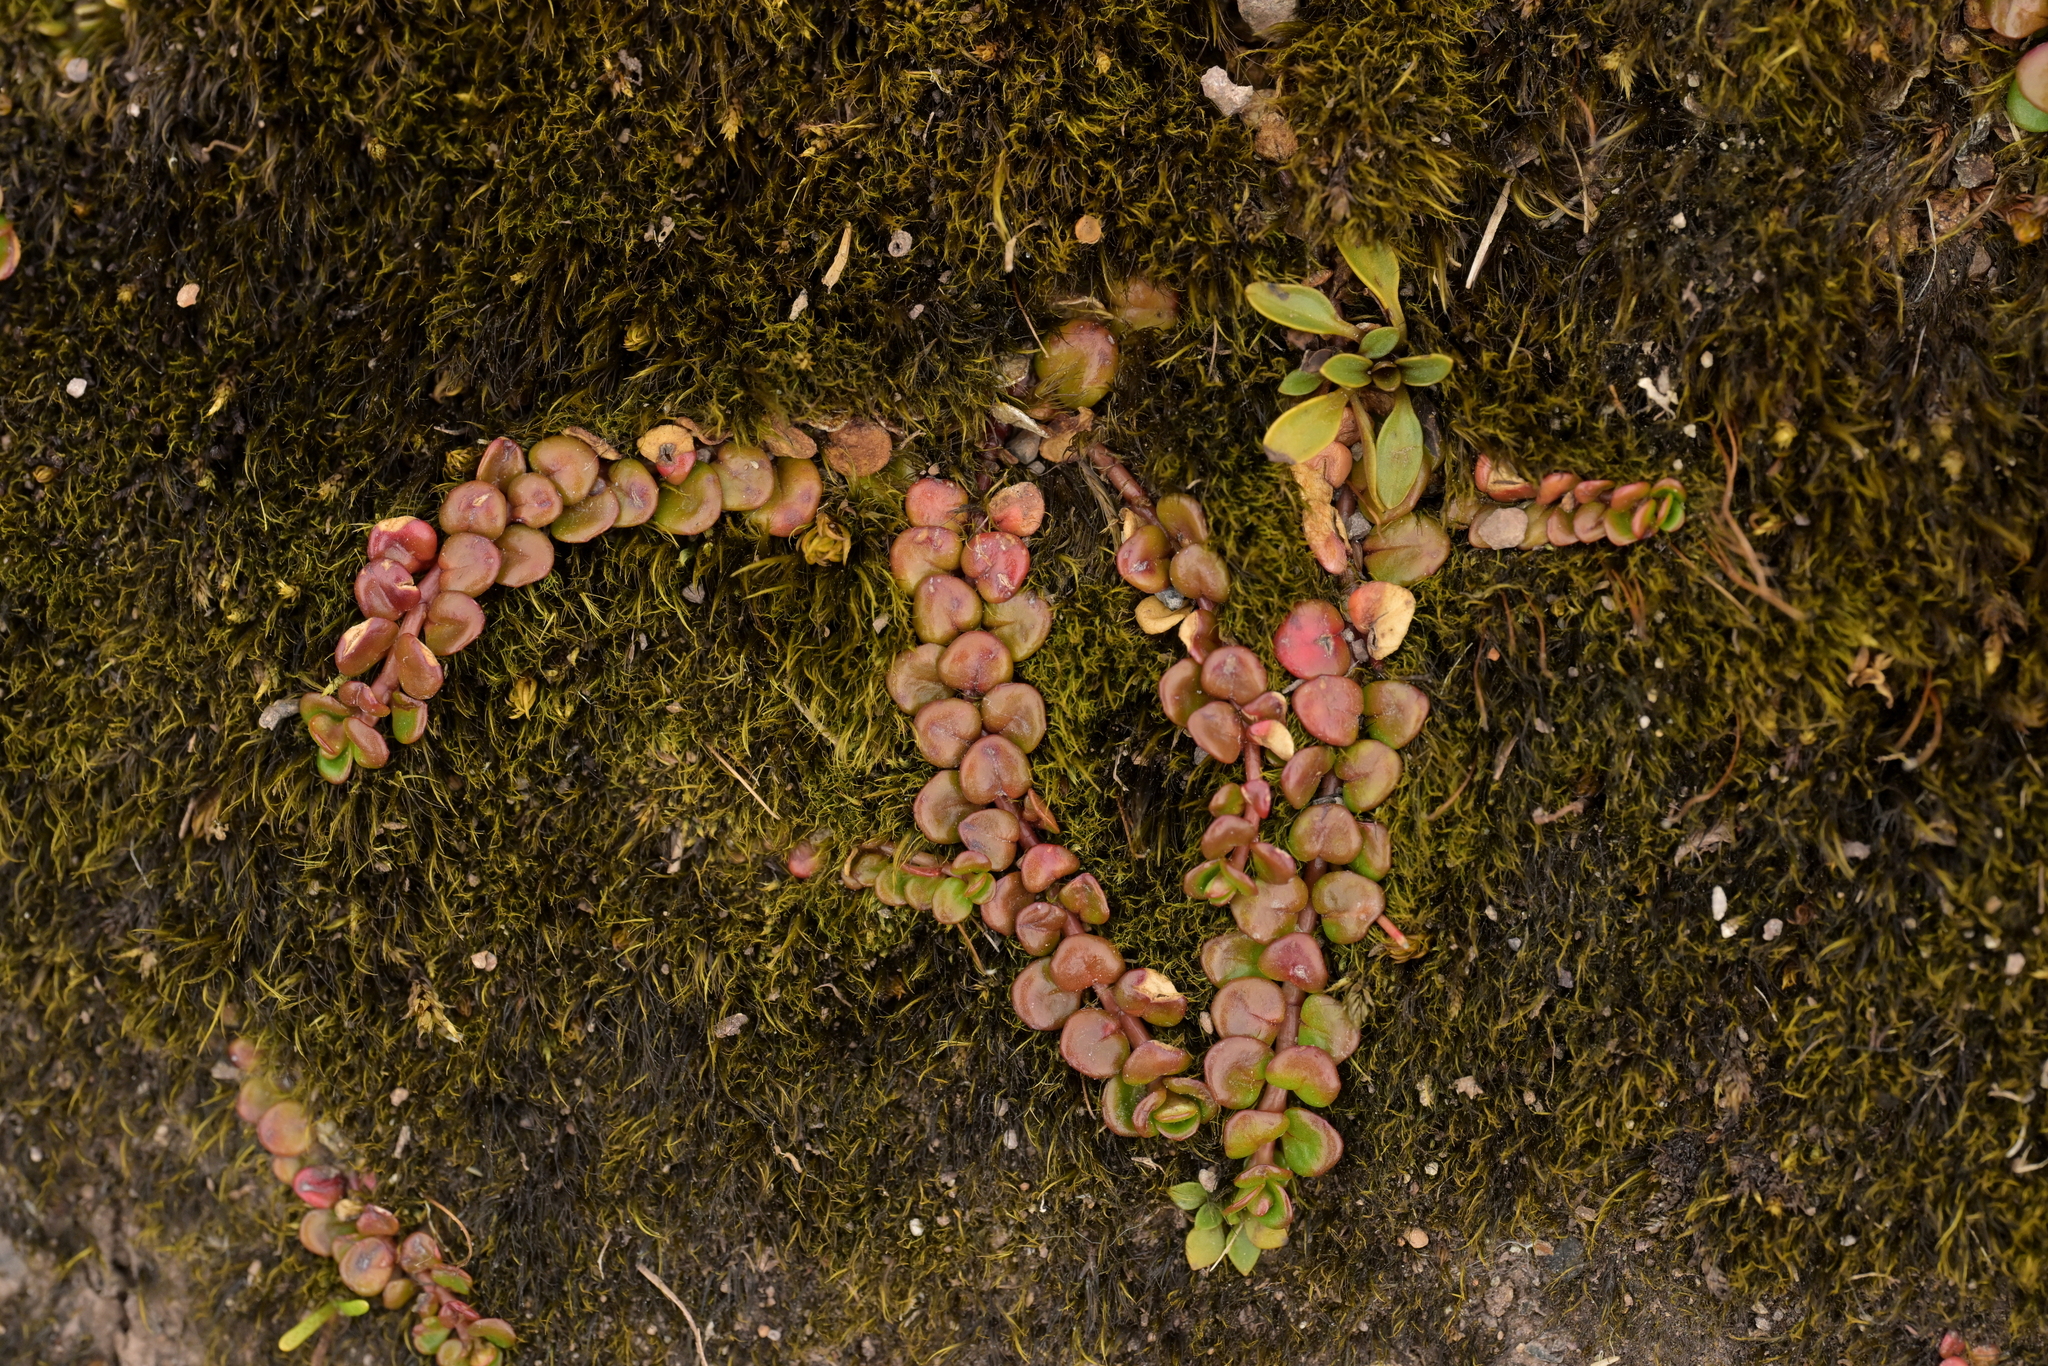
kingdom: Plantae
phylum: Tracheophyta
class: Magnoliopsida
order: Myrtales
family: Onagraceae
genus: Epilobium
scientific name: Epilobium pernitens
